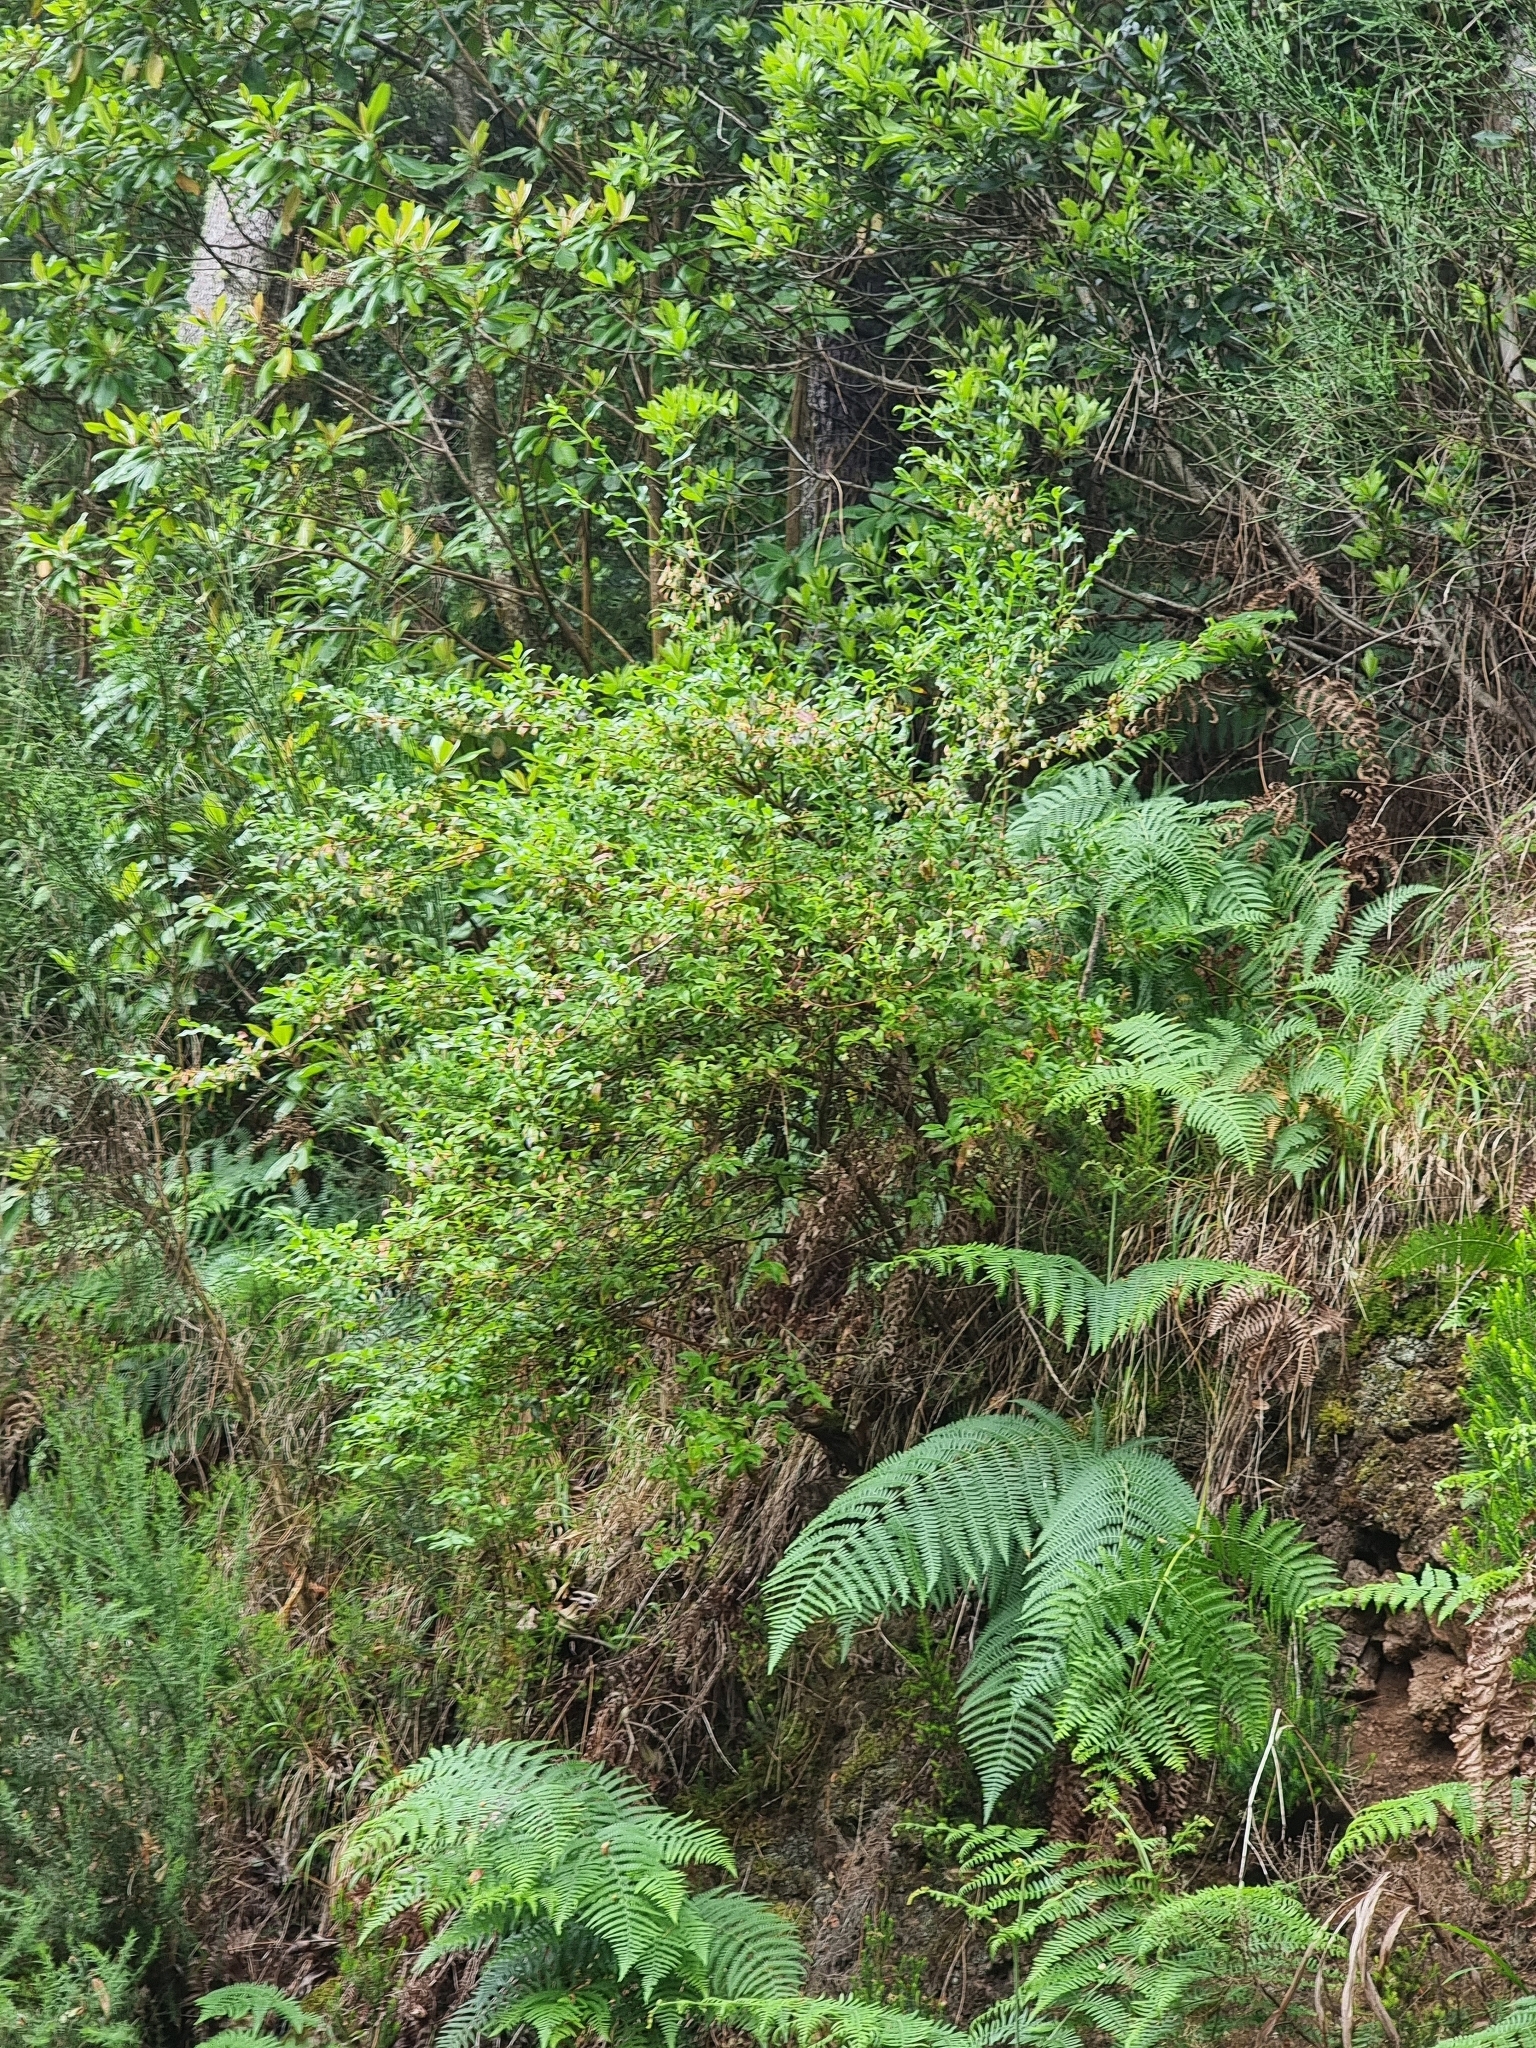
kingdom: Plantae
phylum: Tracheophyta
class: Magnoliopsida
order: Ericales
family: Ericaceae
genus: Vaccinium
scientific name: Vaccinium padifolium
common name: Madeiran blueberry
